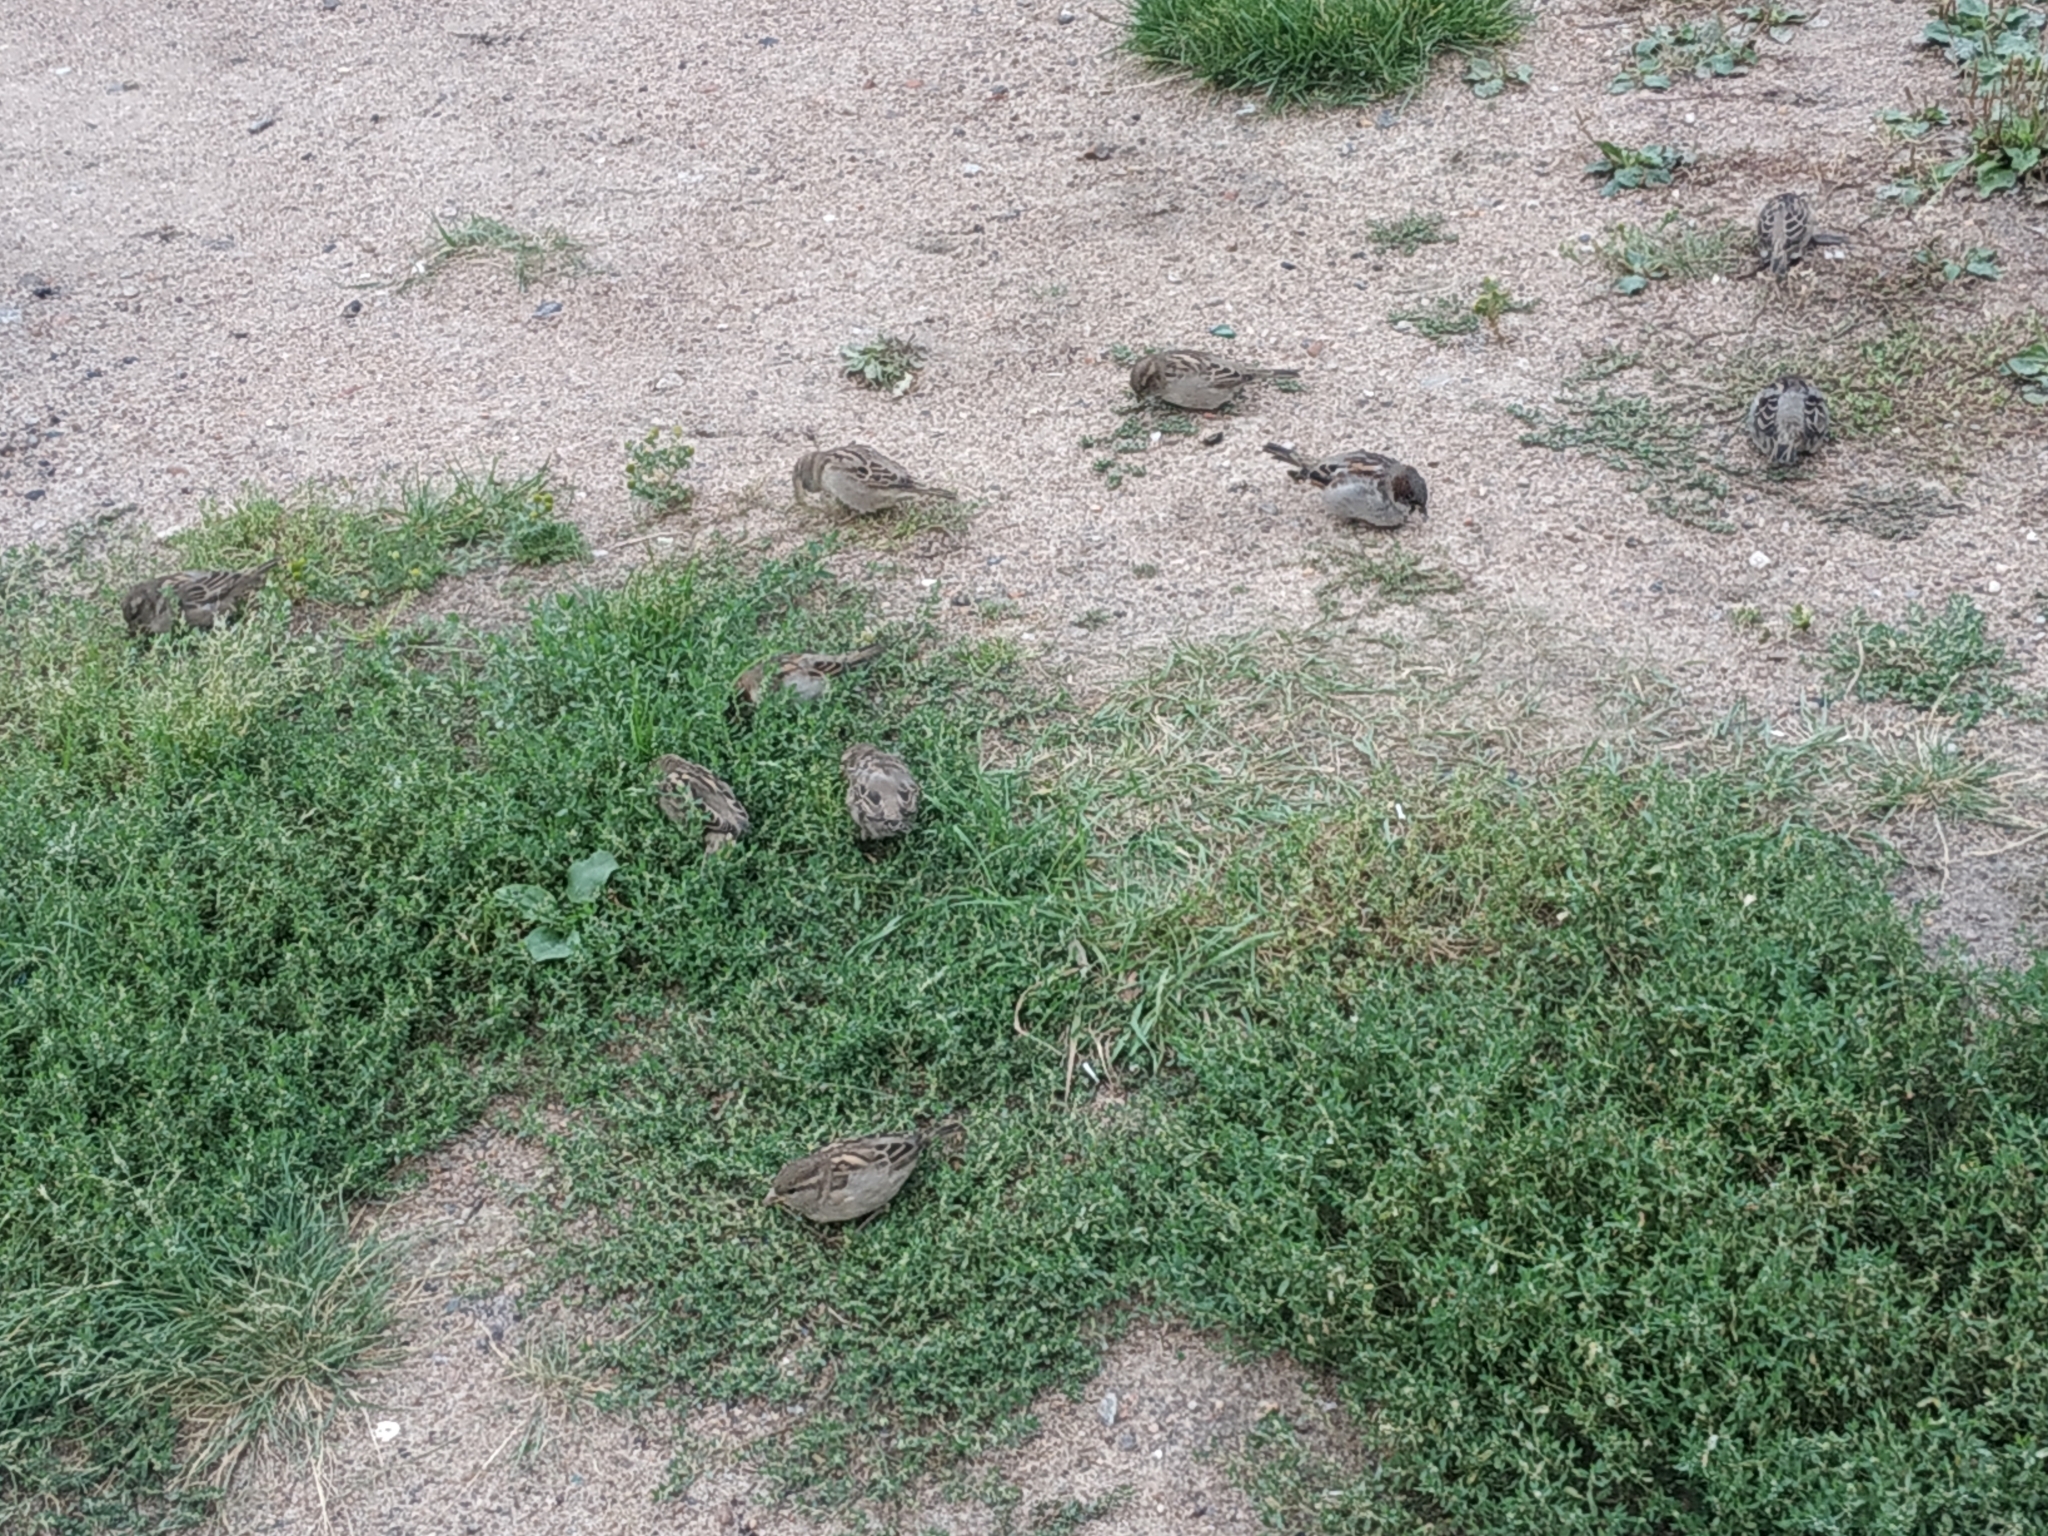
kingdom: Animalia
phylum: Chordata
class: Aves
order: Passeriformes
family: Passeridae
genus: Passer
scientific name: Passer domesticus
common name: House sparrow
